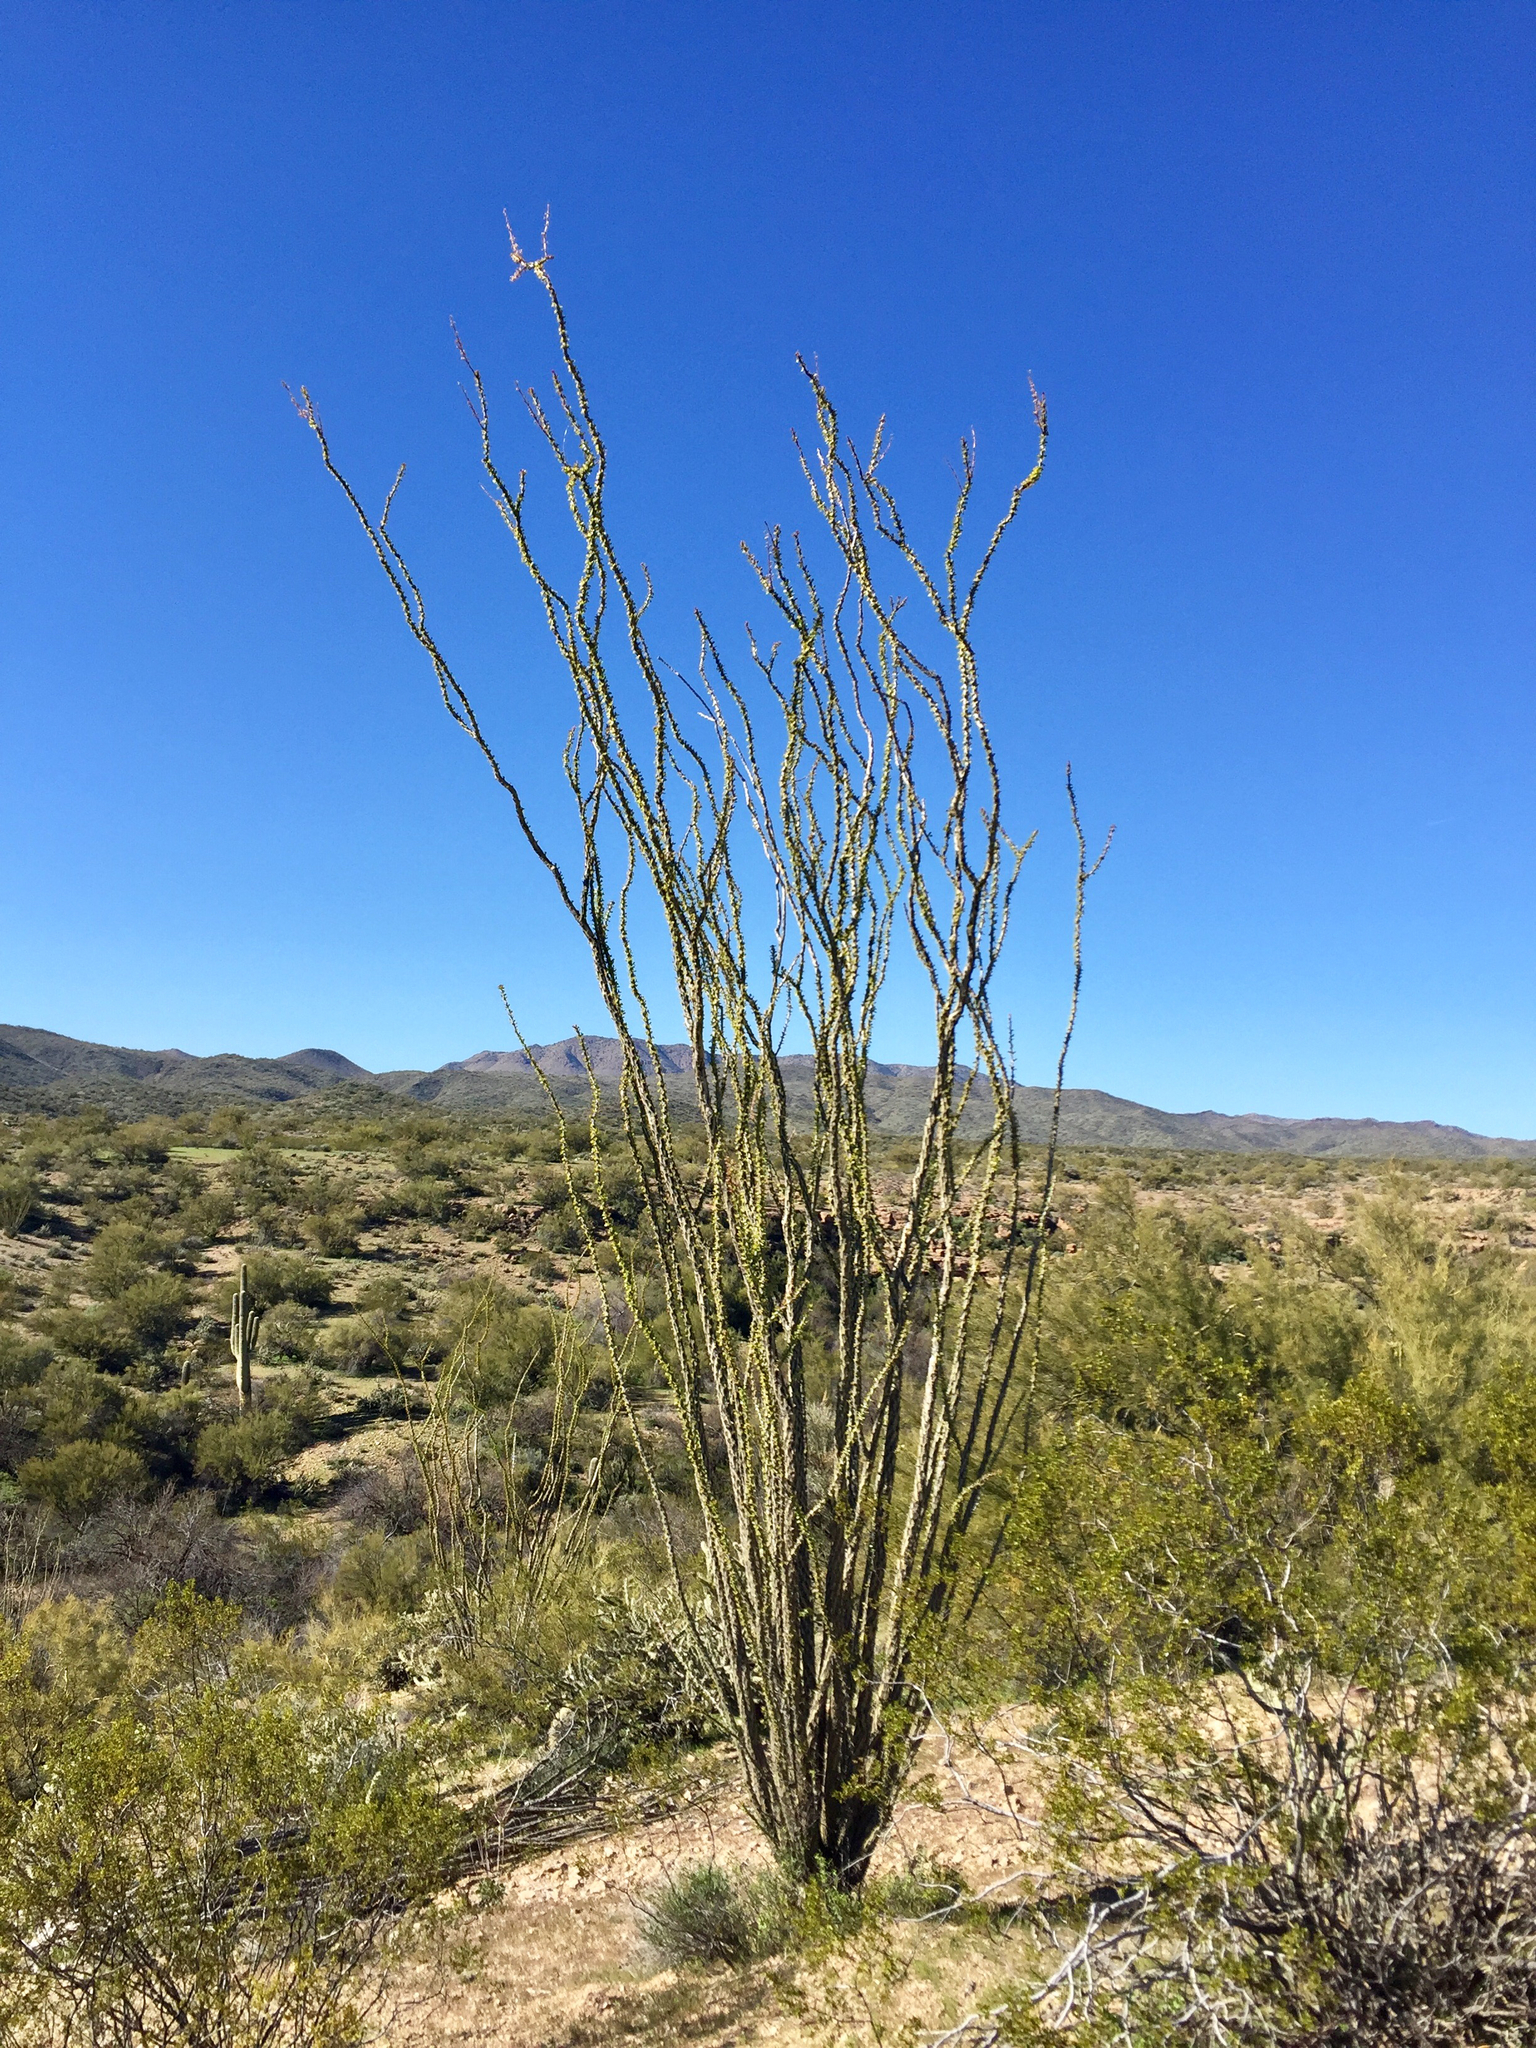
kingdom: Plantae
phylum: Tracheophyta
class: Magnoliopsida
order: Ericales
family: Fouquieriaceae
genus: Fouquieria
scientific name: Fouquieria splendens
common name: Vine-cactus
